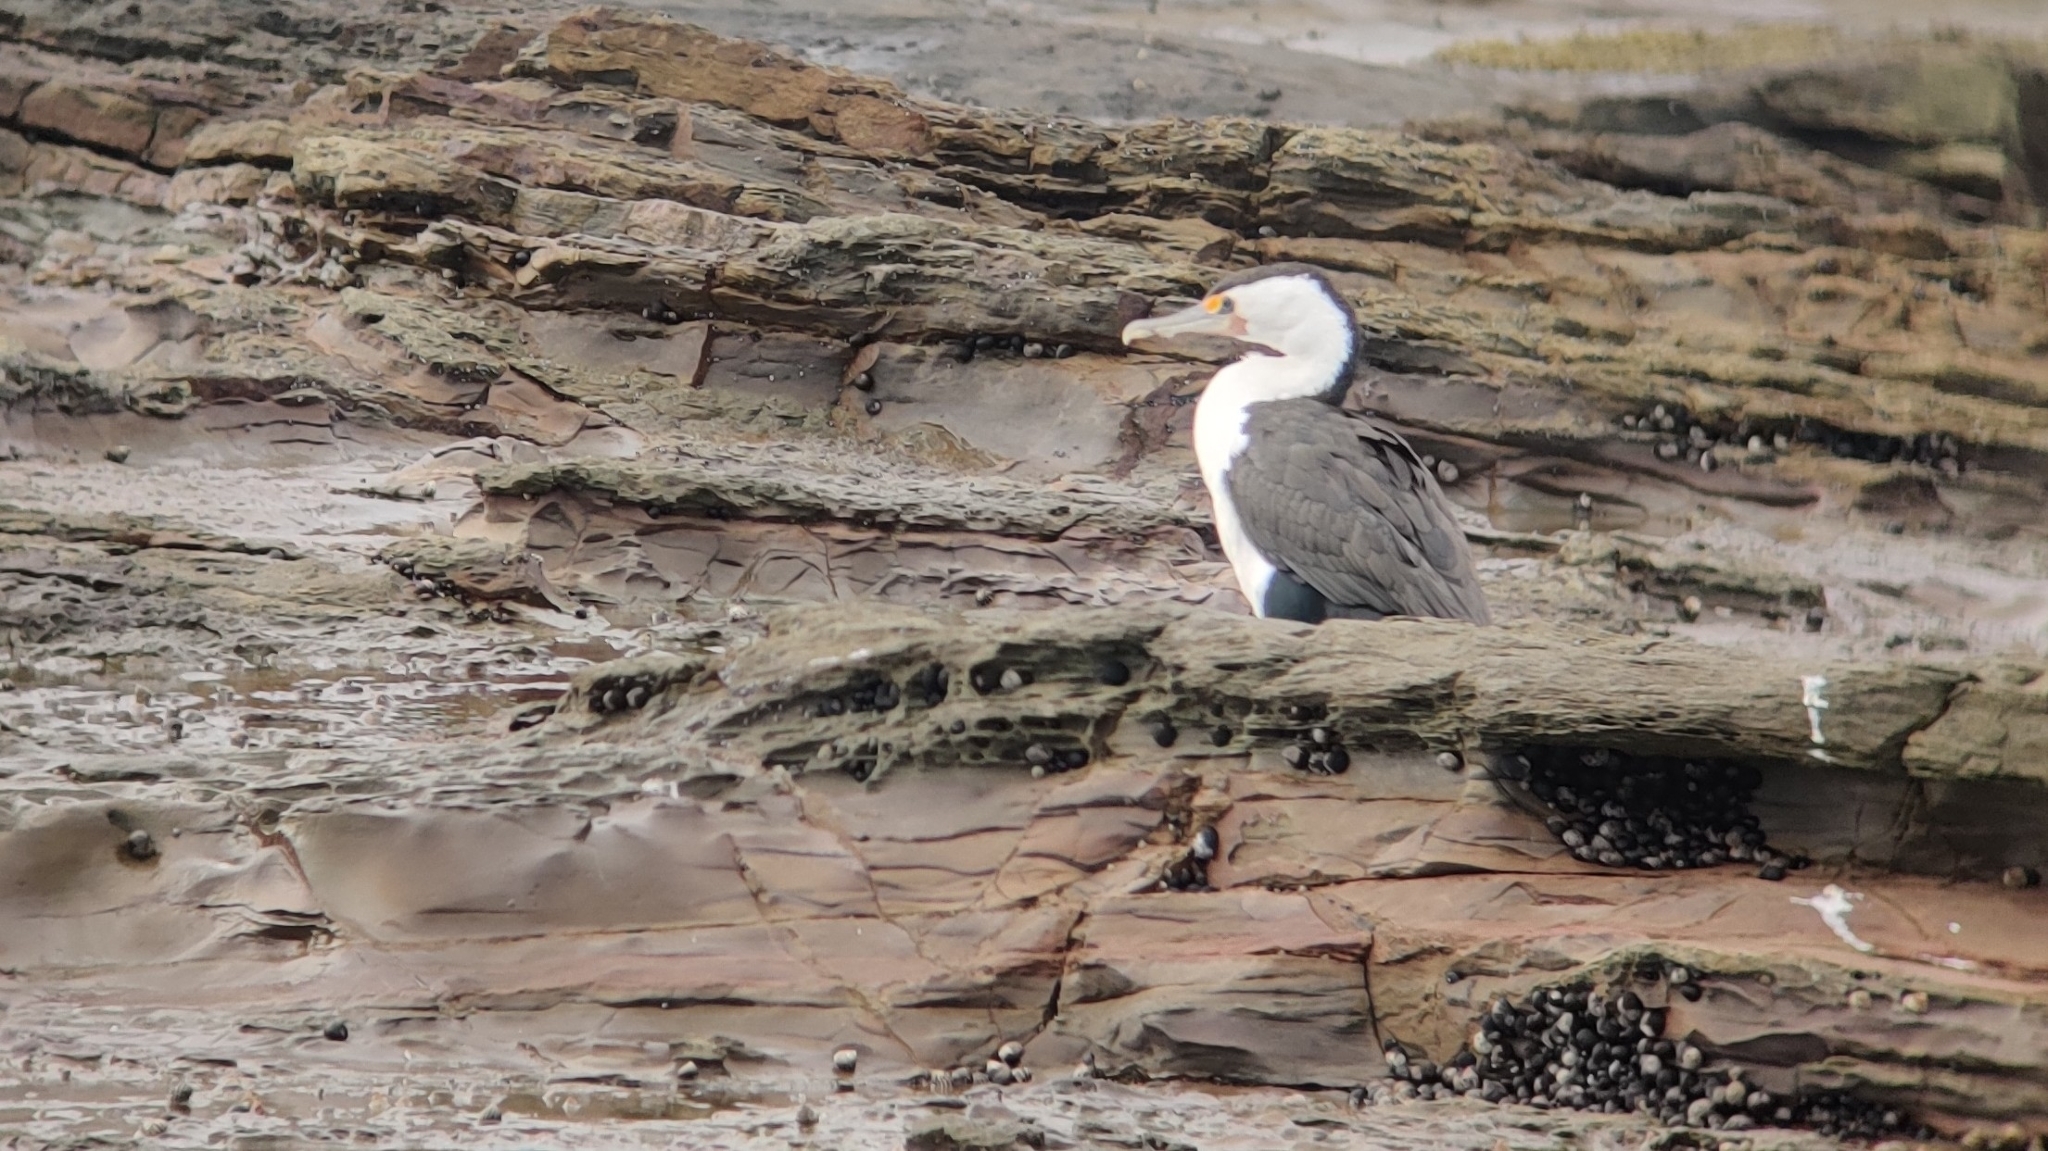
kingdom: Animalia
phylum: Chordata
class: Aves
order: Suliformes
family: Phalacrocoracidae
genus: Phalacrocorax
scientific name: Phalacrocorax varius
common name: Pied cormorant
